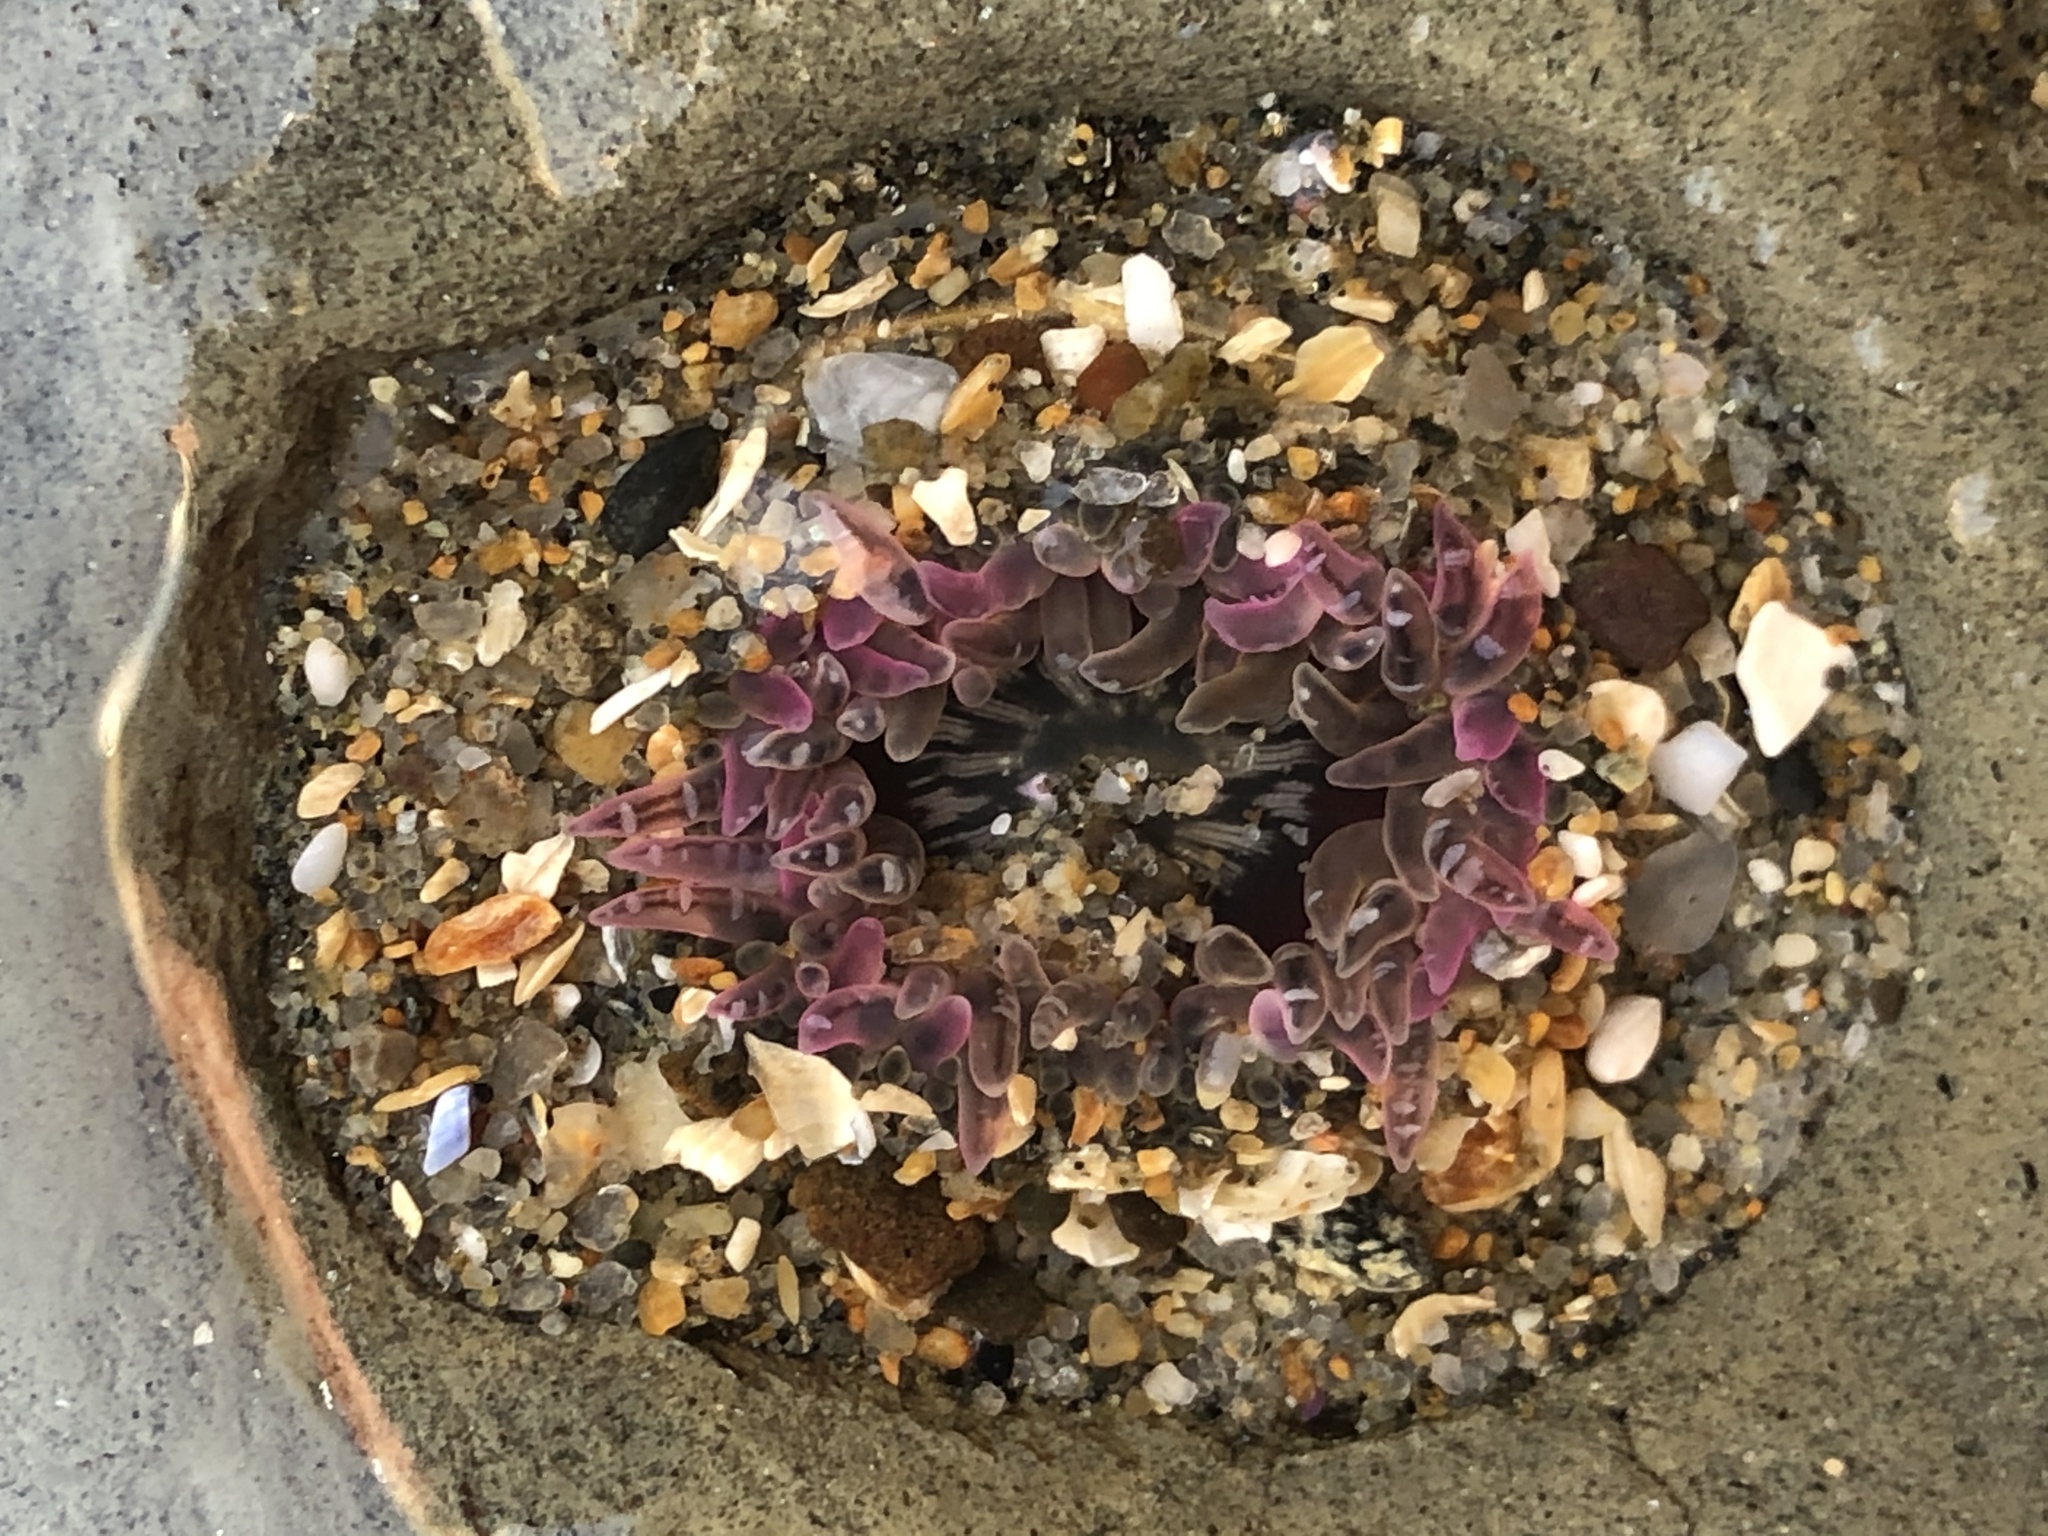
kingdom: Animalia
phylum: Cnidaria
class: Anthozoa
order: Actiniaria
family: Actiniidae
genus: Anthopleura
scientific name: Anthopleura artemisia
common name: Buried sea anemone
